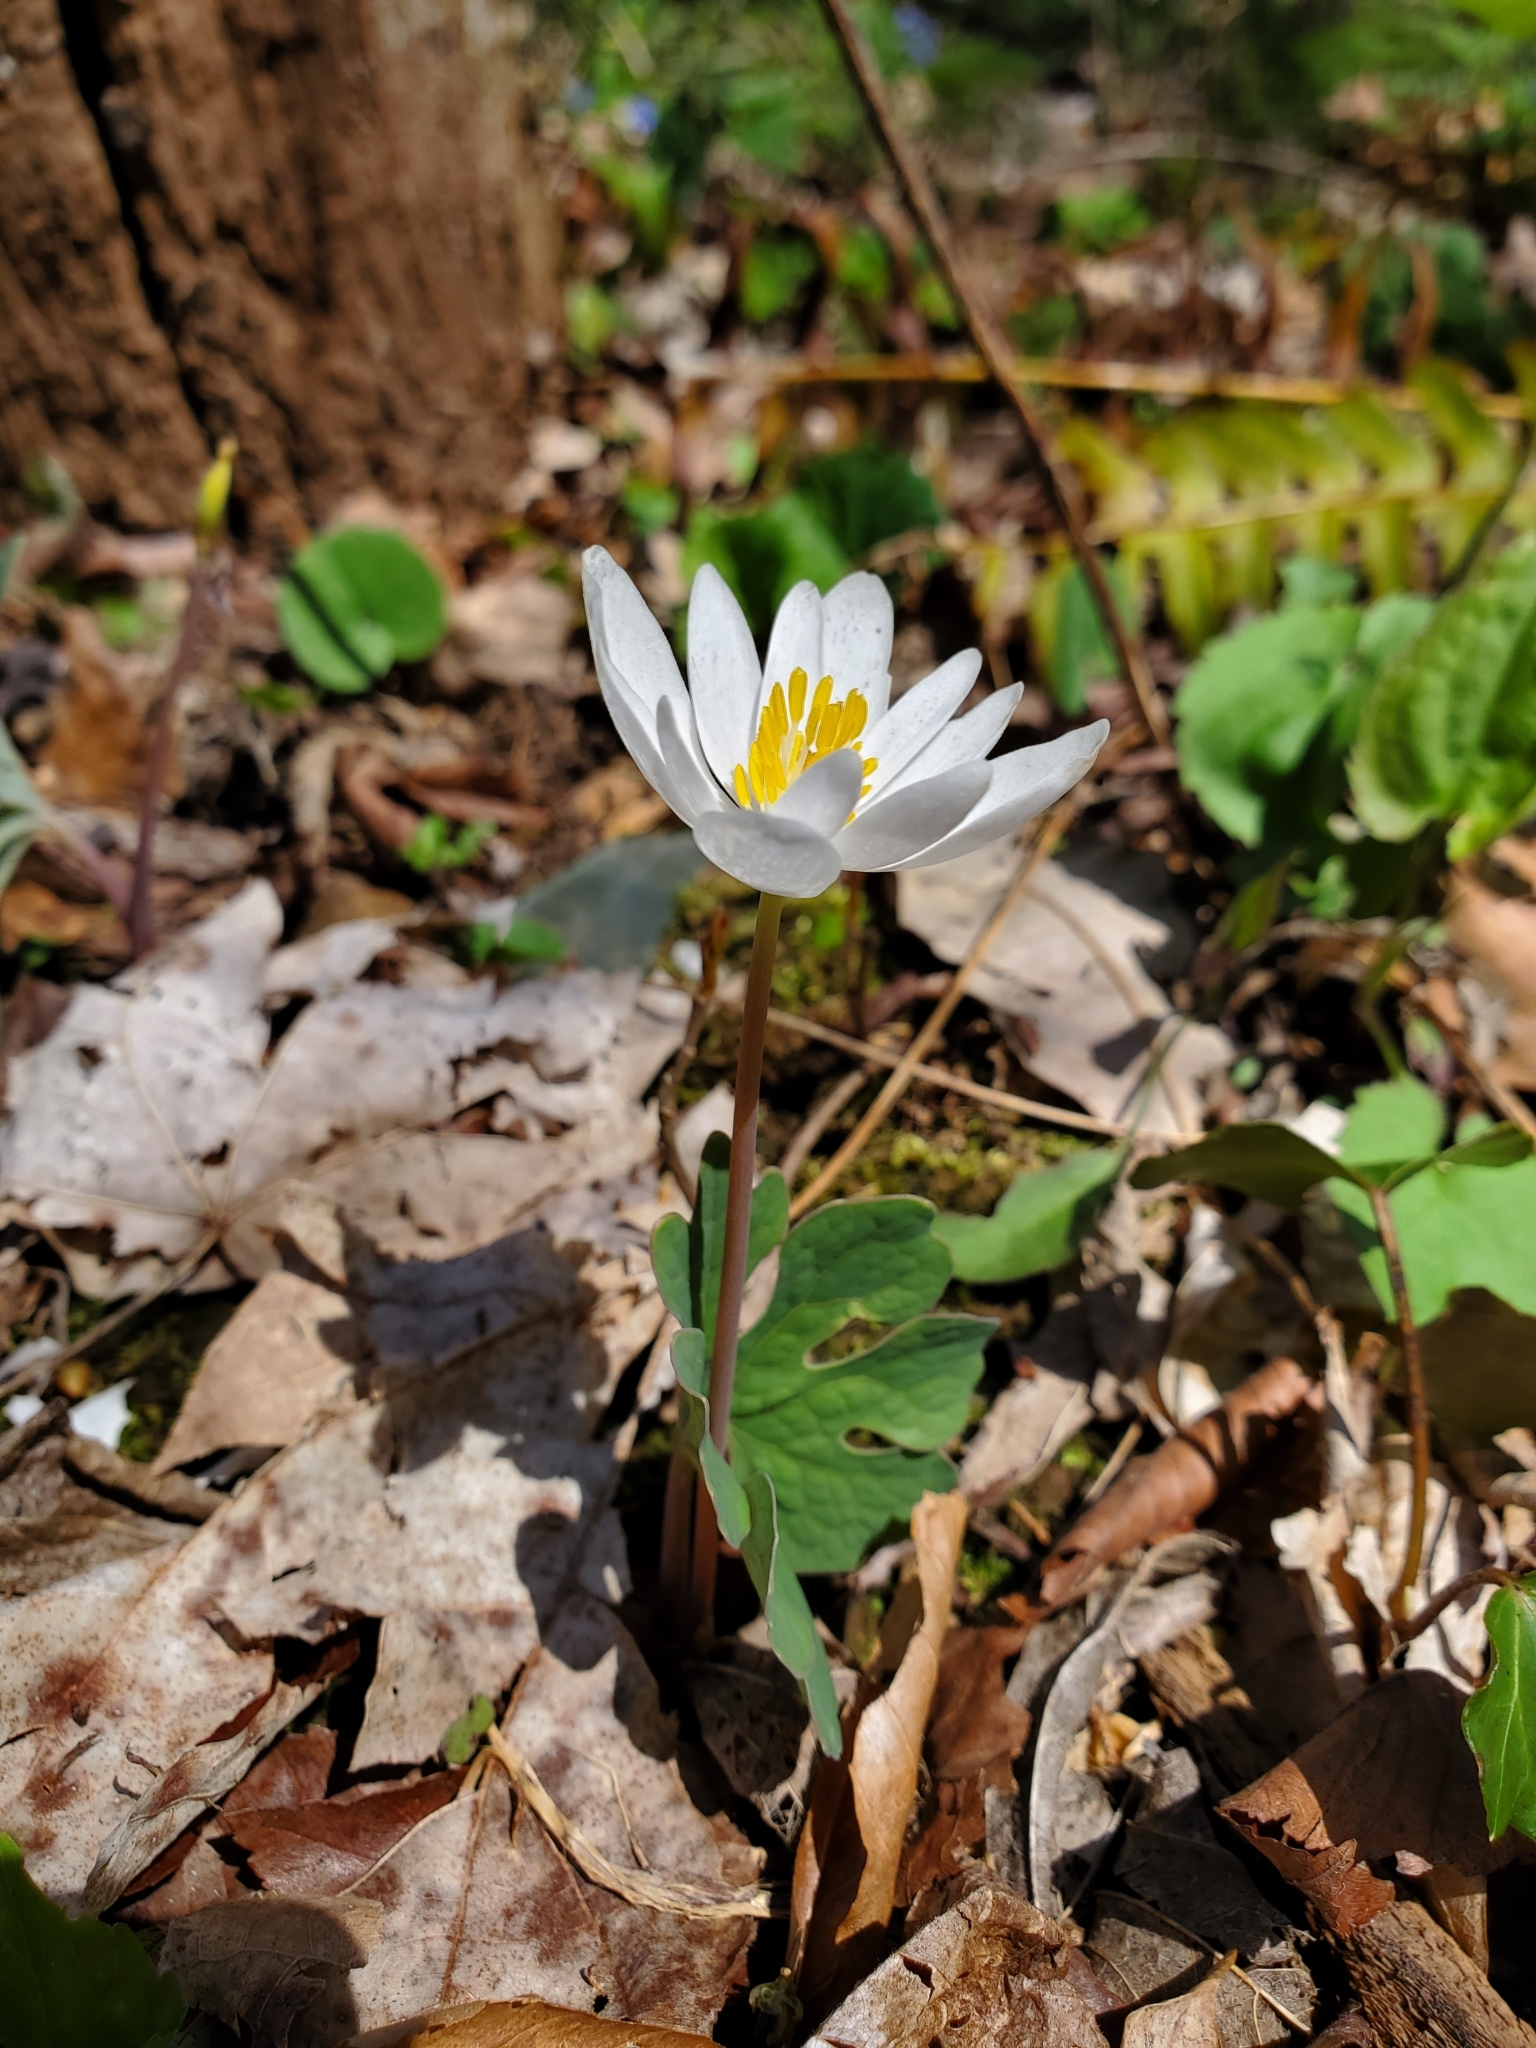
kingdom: Plantae
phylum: Tracheophyta
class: Magnoliopsida
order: Ranunculales
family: Papaveraceae
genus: Sanguinaria
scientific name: Sanguinaria canadensis
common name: Bloodroot
